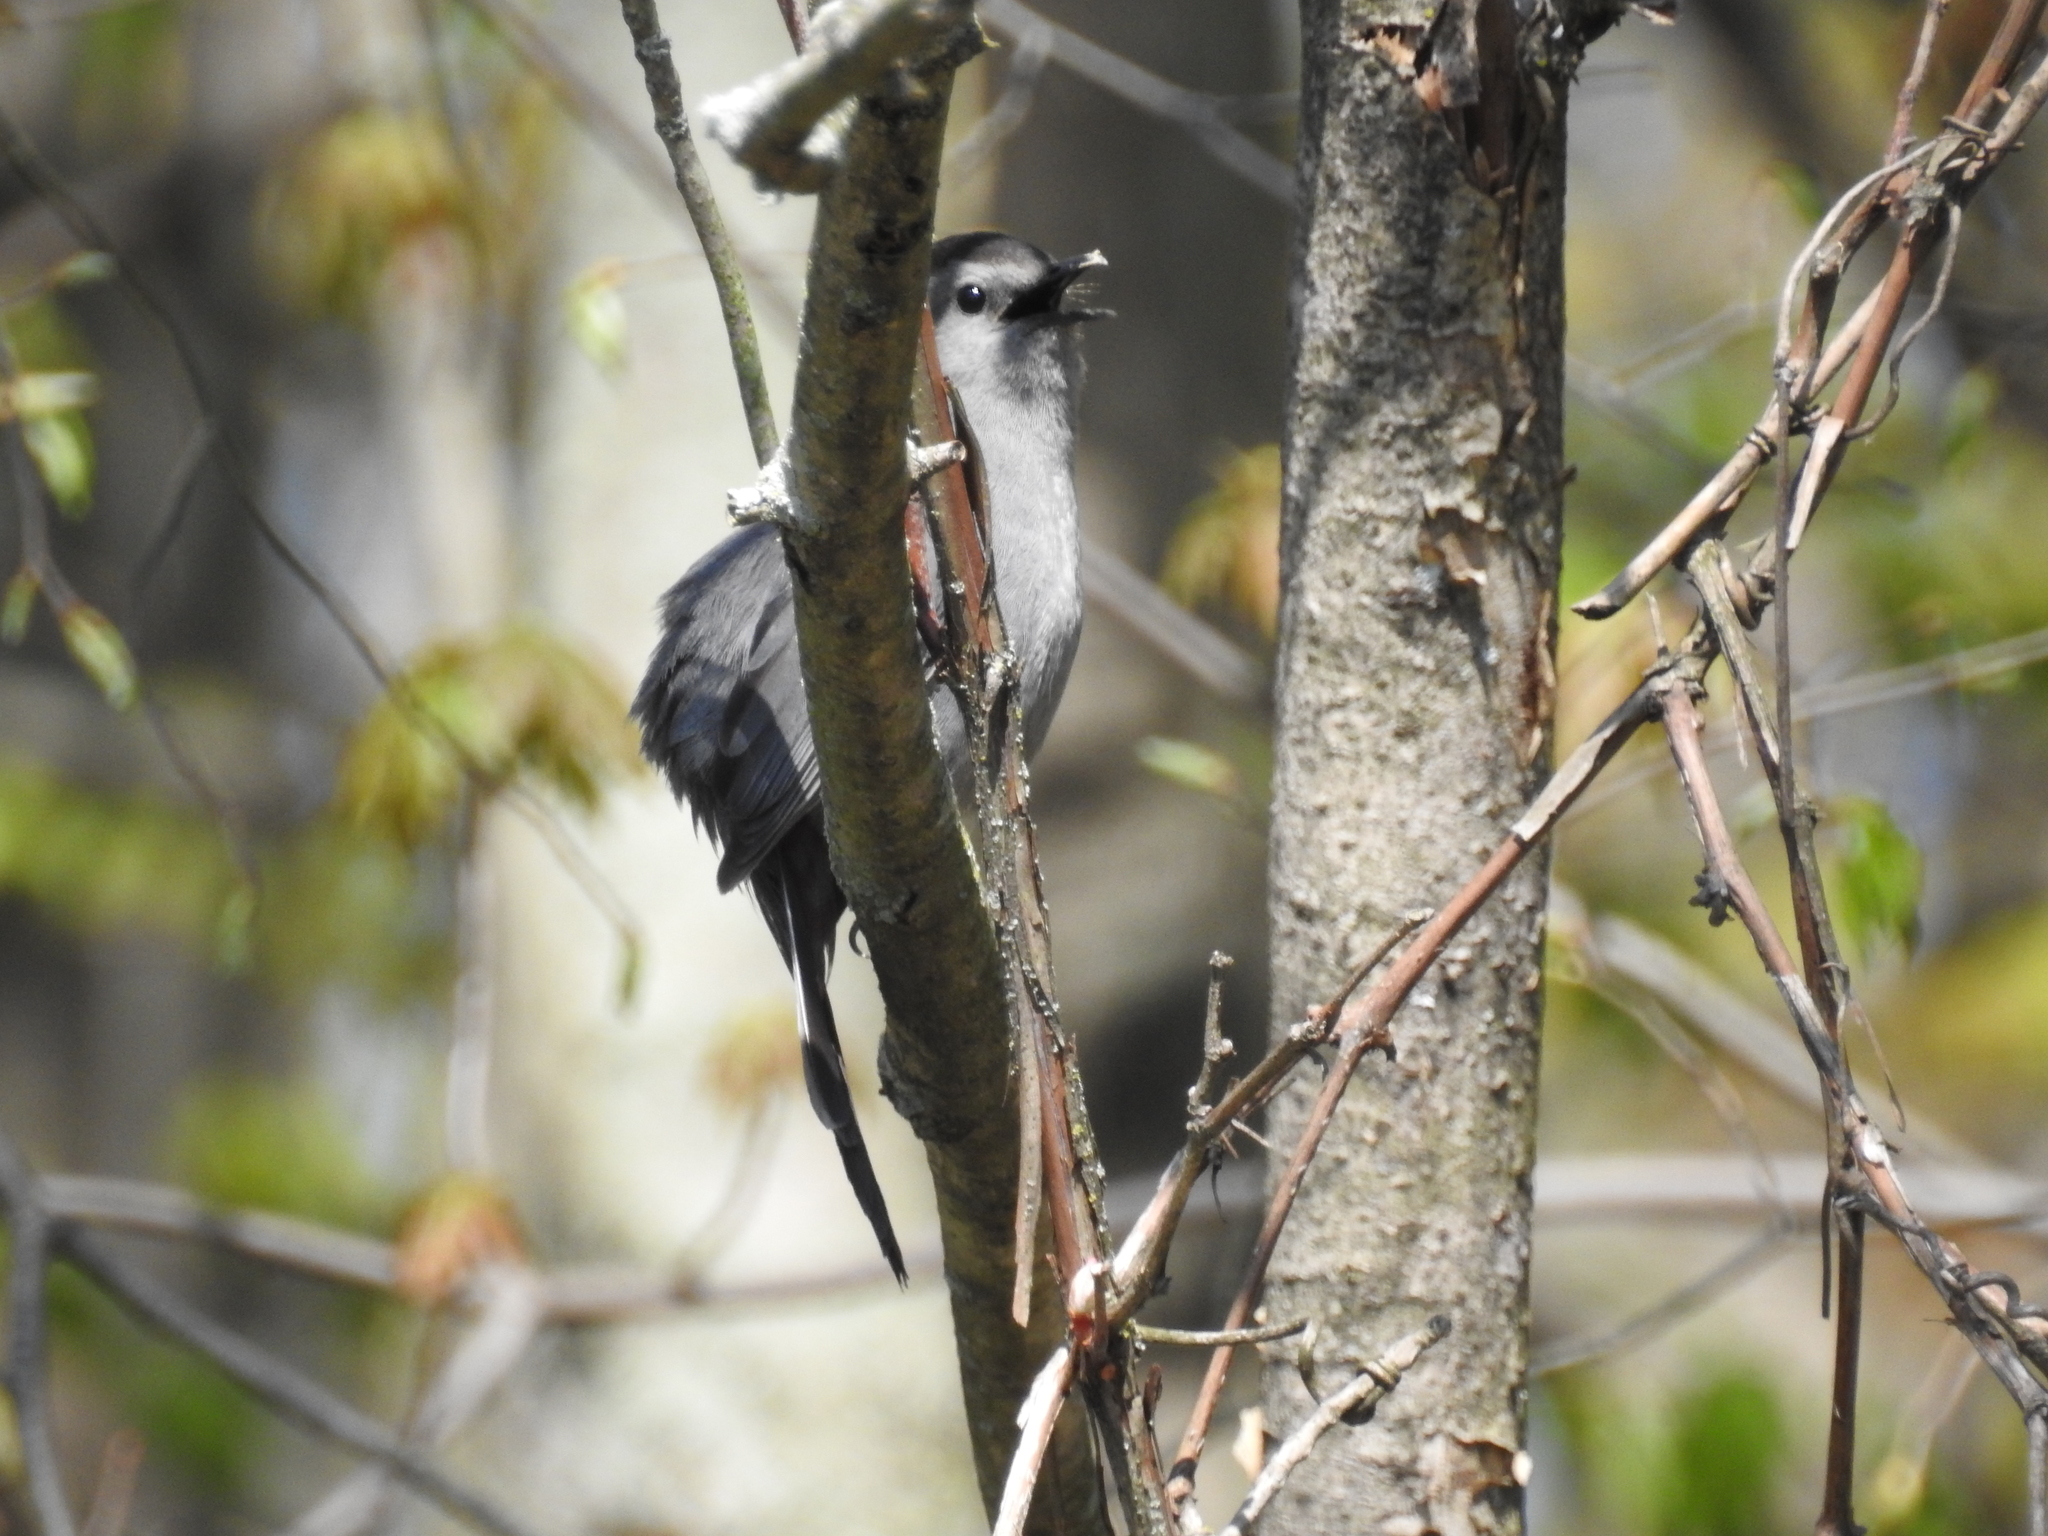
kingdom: Animalia
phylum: Chordata
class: Aves
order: Passeriformes
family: Mimidae
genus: Dumetella
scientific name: Dumetella carolinensis
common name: Gray catbird
